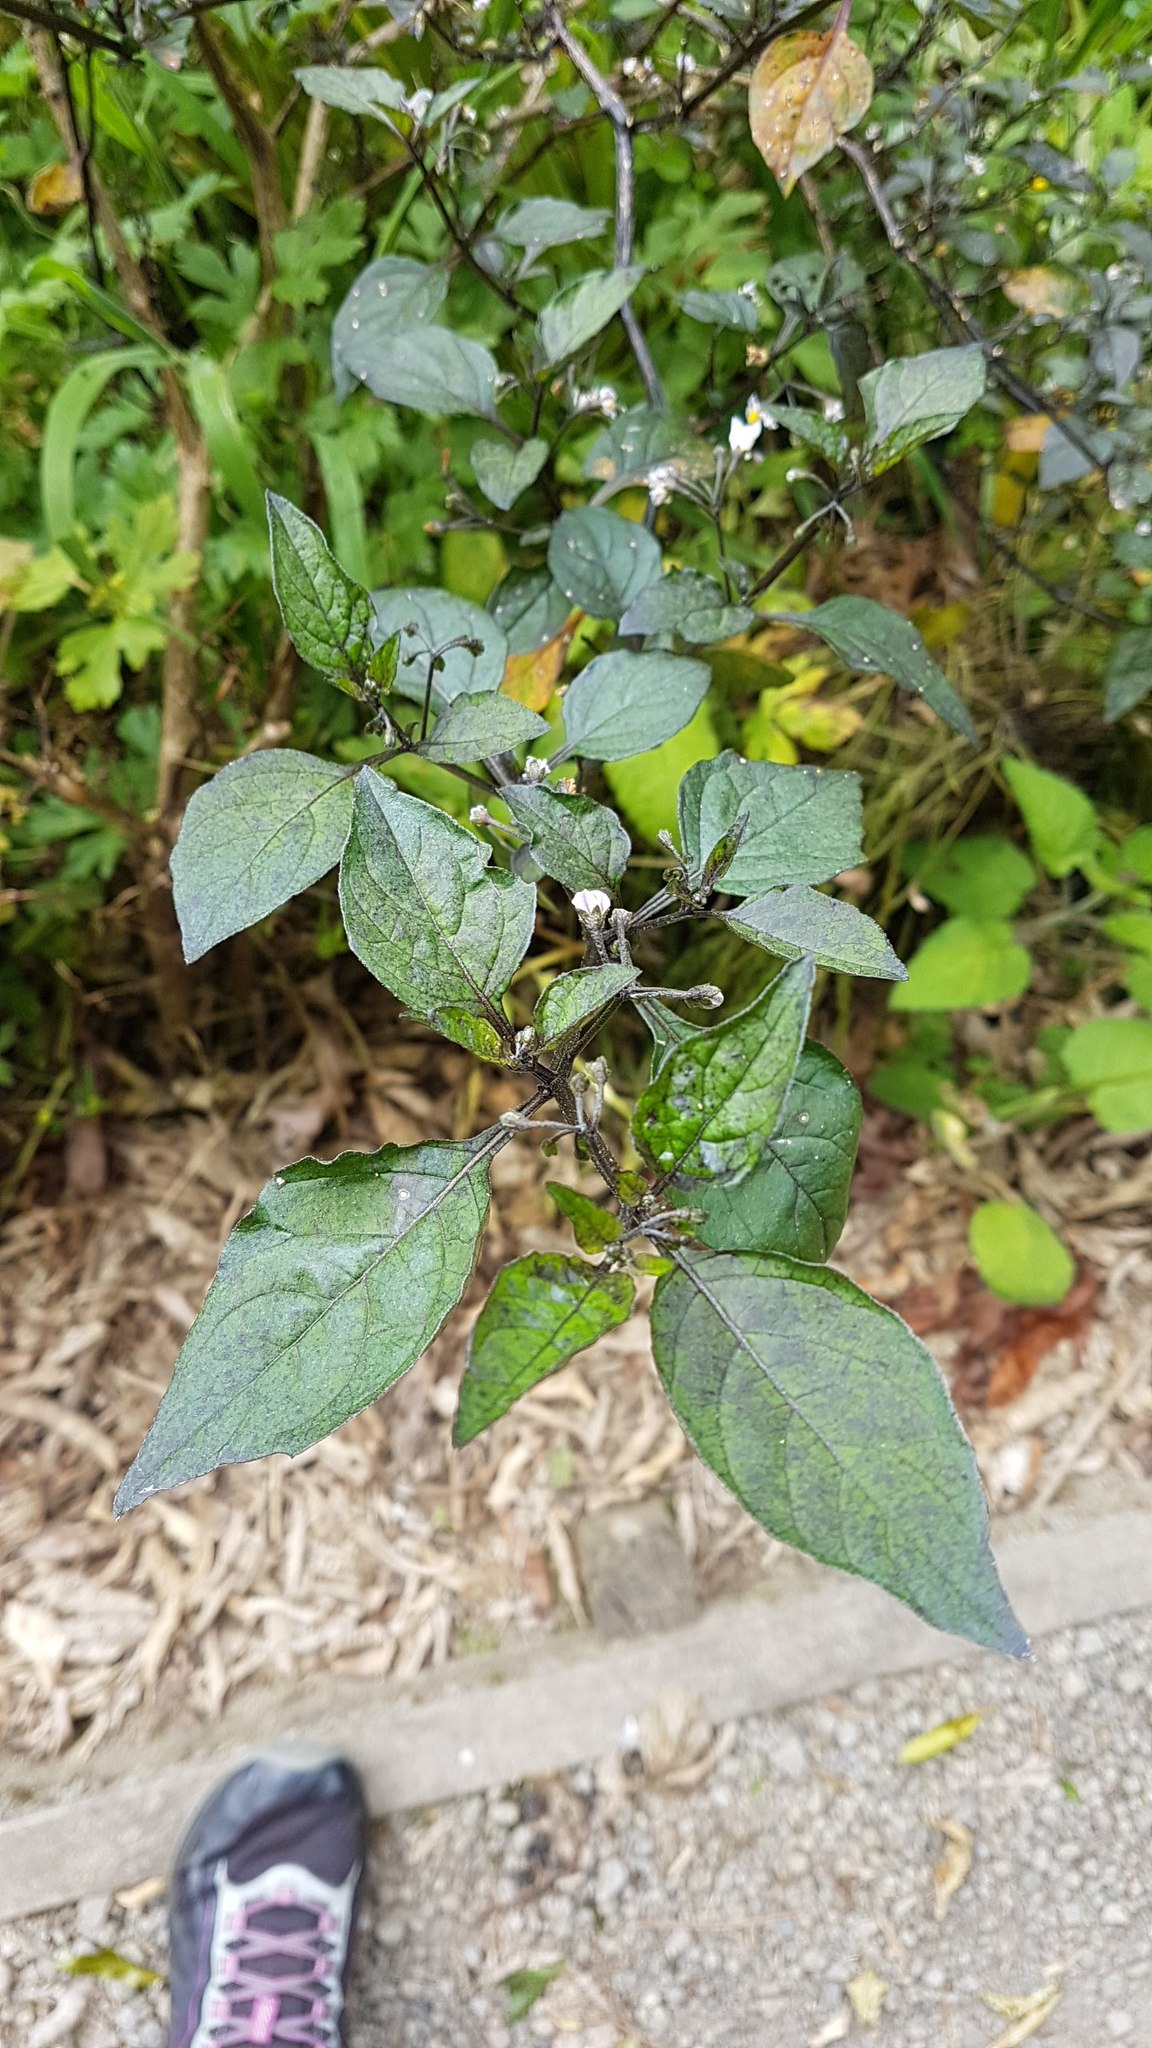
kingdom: Plantae
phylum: Tracheophyta
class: Magnoliopsida
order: Solanales
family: Solanaceae
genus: Solanum
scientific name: Solanum nigrum
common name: Black nightshade
